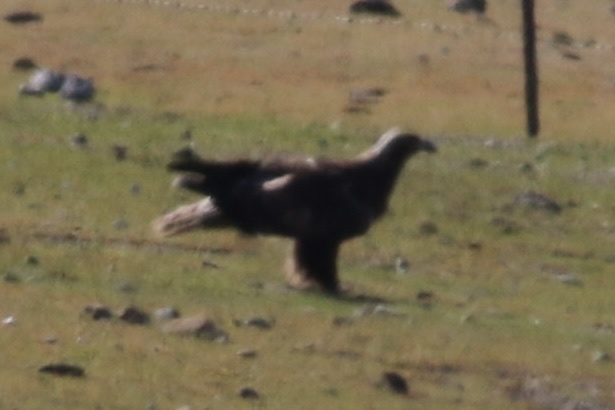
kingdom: Animalia
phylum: Chordata
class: Aves
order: Accipitriformes
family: Accipitridae
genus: Aquila
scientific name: Aquila chrysaetos
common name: Golden eagle
